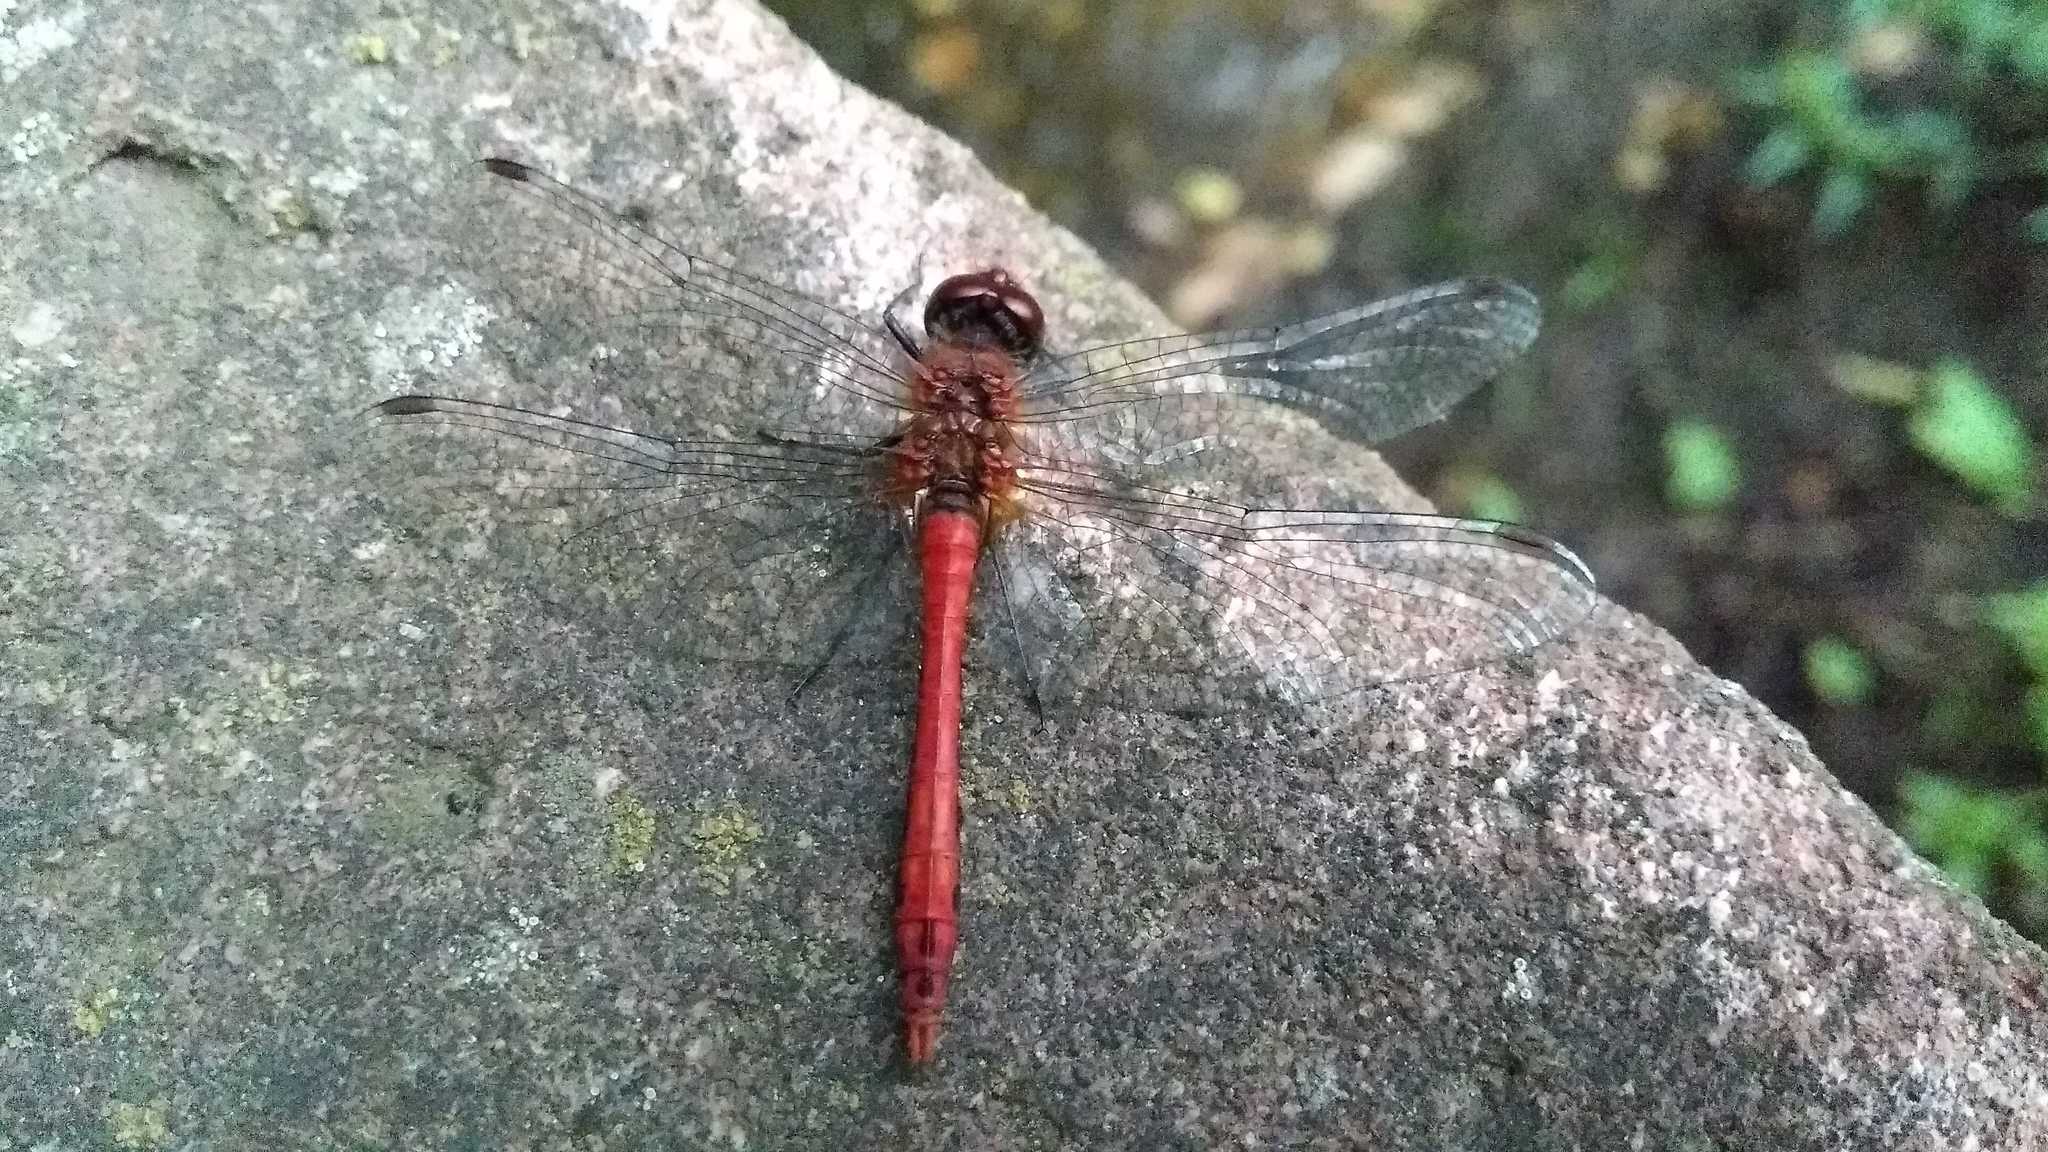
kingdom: Animalia
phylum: Arthropoda
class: Insecta
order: Odonata
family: Libellulidae
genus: Sympetrum
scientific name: Sympetrum sanguineum
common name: Ruddy darter
